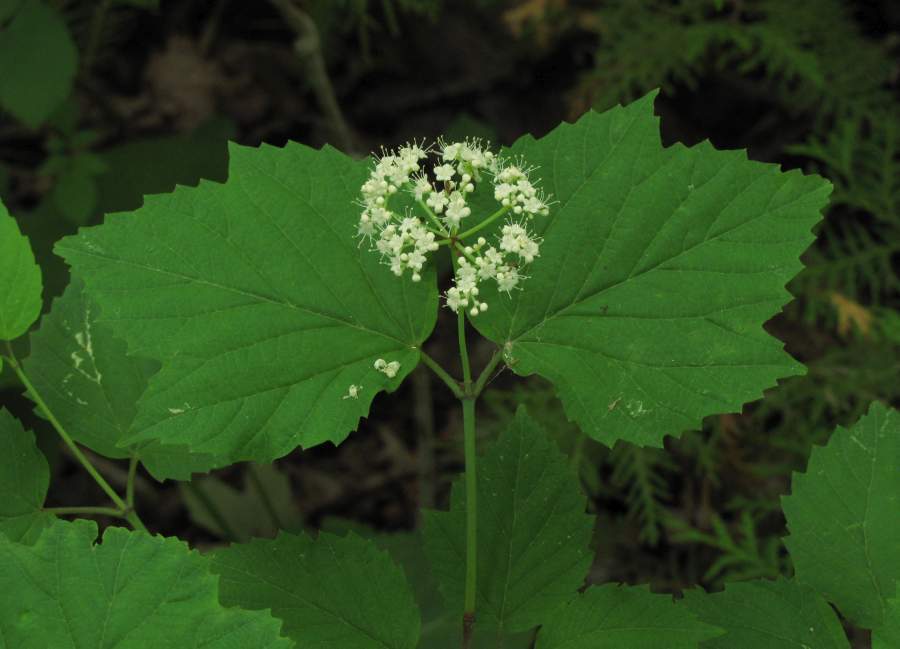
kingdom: Plantae
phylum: Tracheophyta
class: Magnoliopsida
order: Dipsacales
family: Viburnaceae
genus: Viburnum
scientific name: Viburnum acerifolium
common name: Dockmackie
